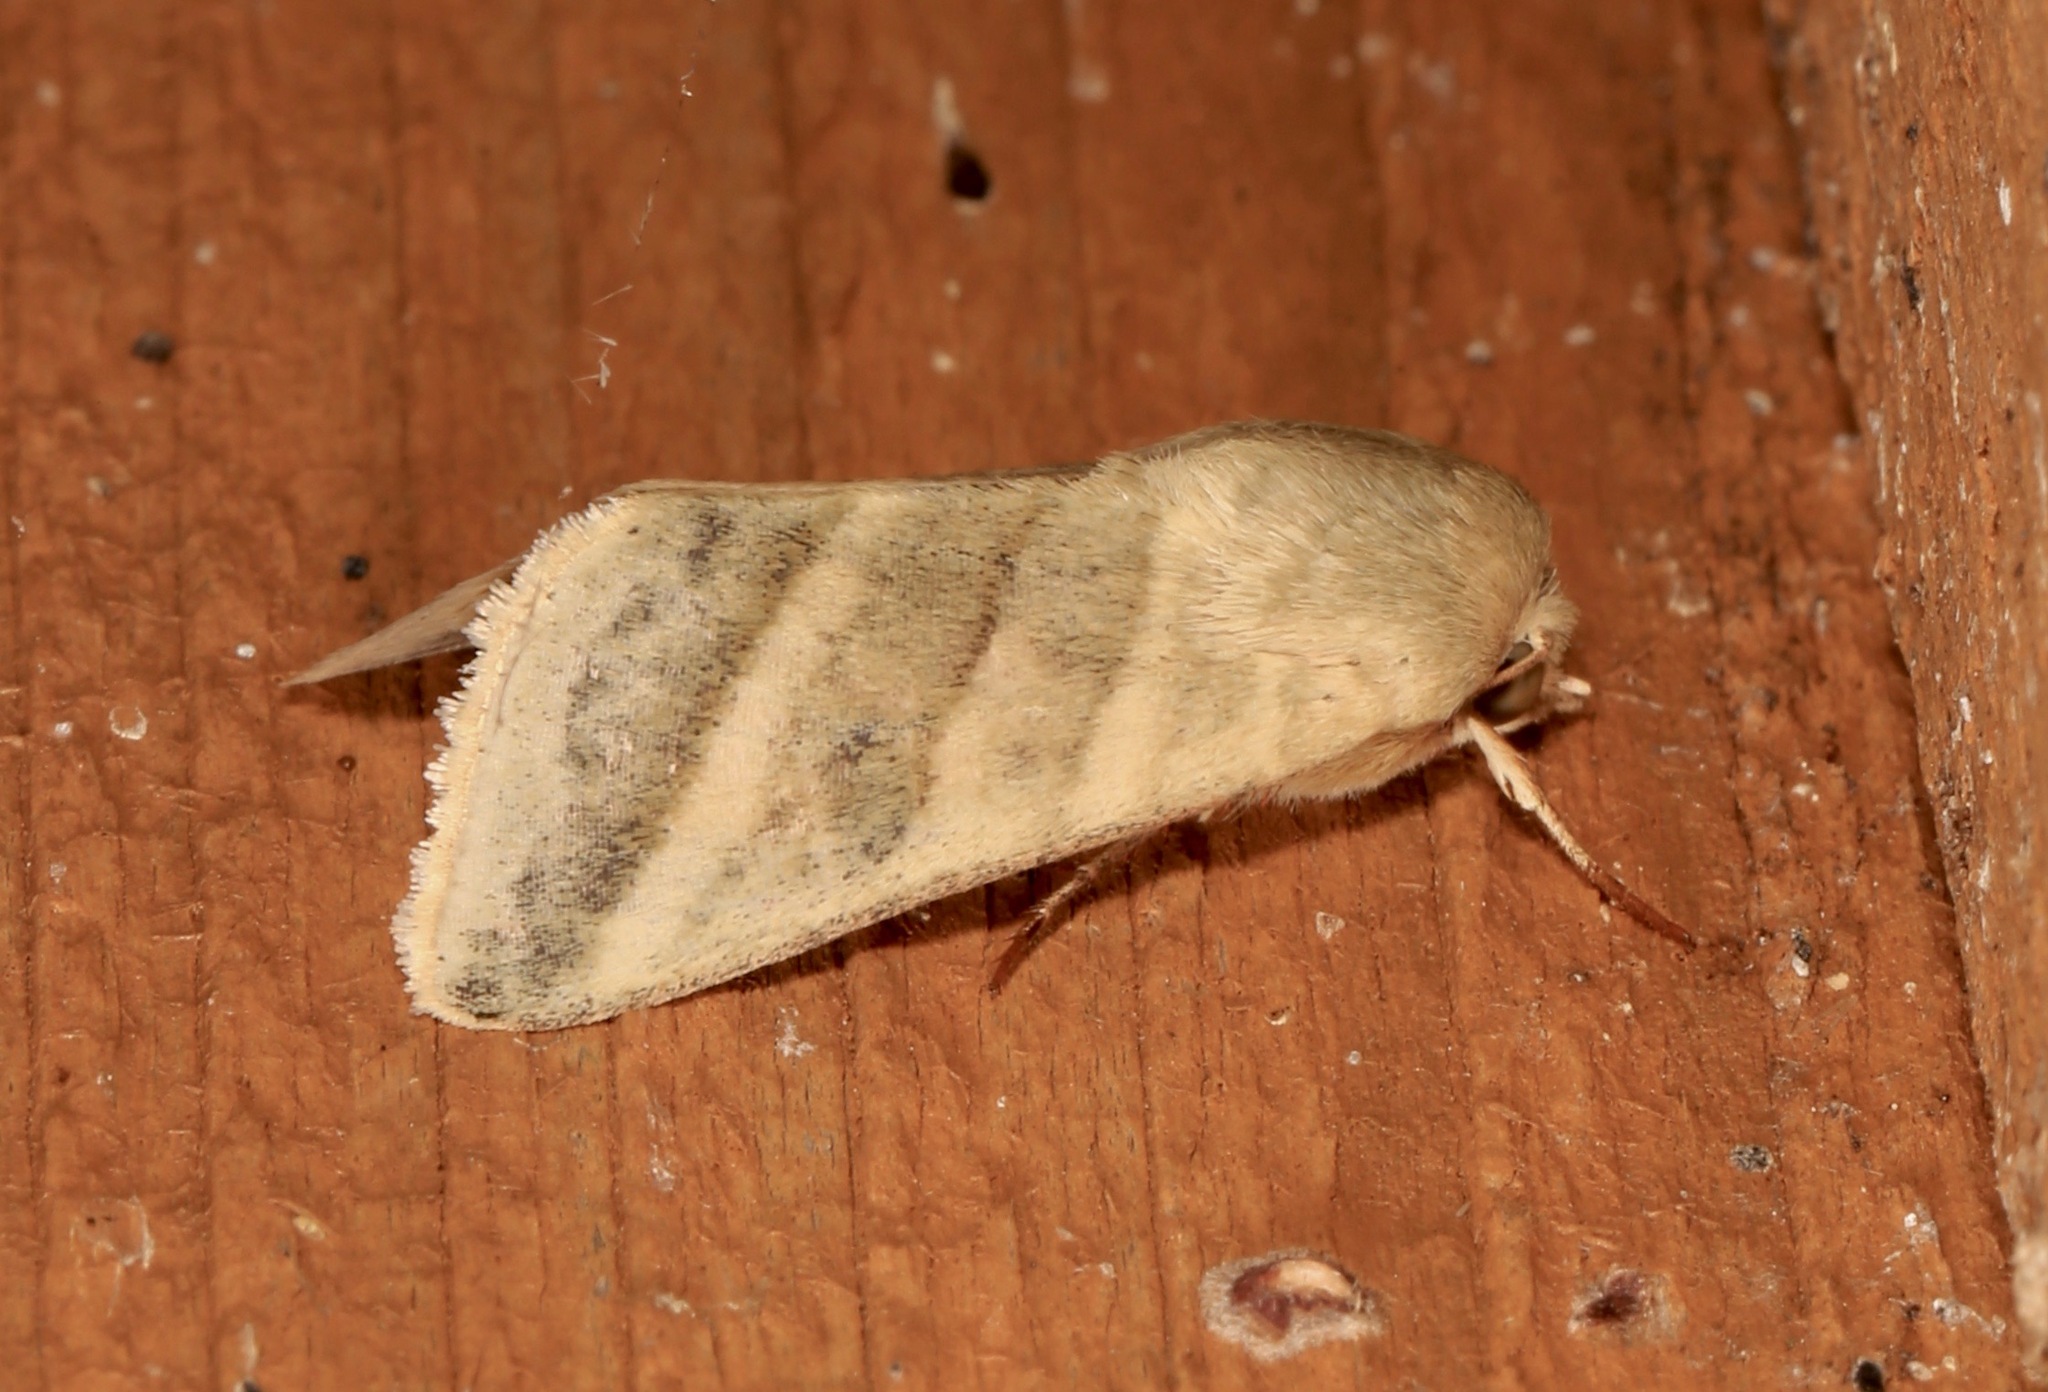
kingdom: Animalia
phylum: Arthropoda
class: Insecta
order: Lepidoptera
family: Noctuidae
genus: Chloridea
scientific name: Chloridea virescens
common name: Tobacco budworm
